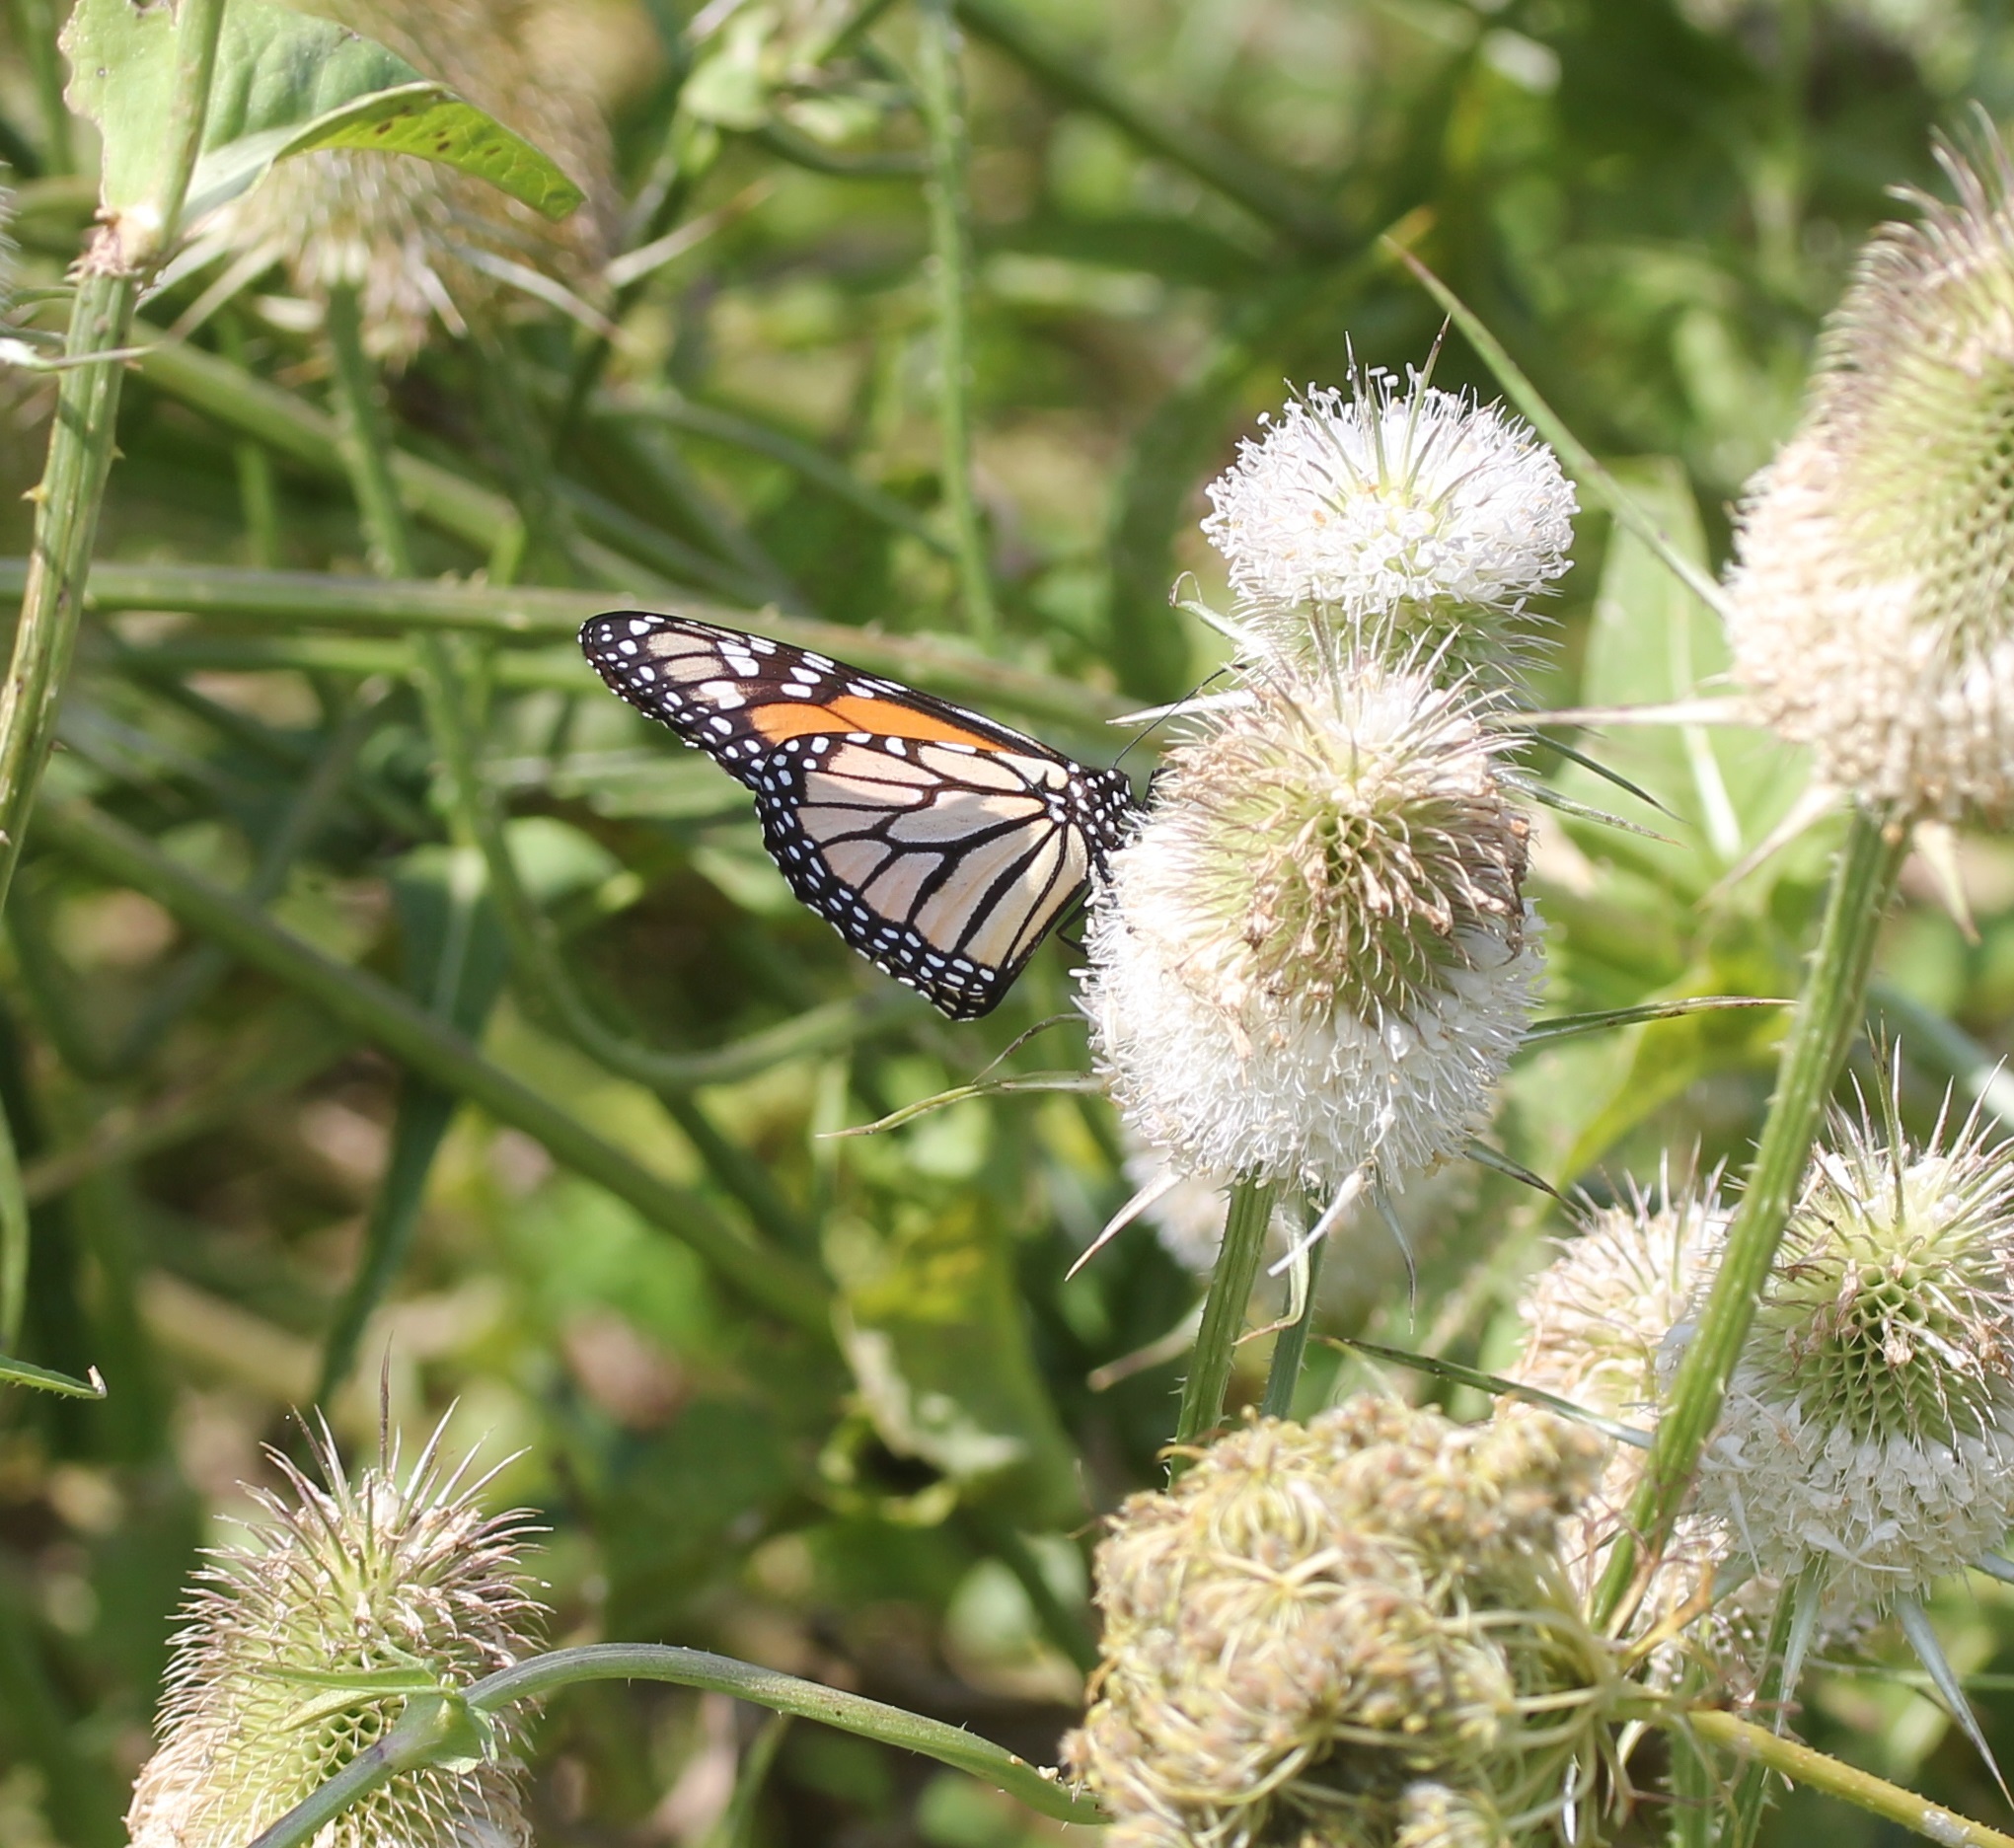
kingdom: Animalia
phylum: Arthropoda
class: Insecta
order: Lepidoptera
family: Nymphalidae
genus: Danaus
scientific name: Danaus plexippus
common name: Monarch
